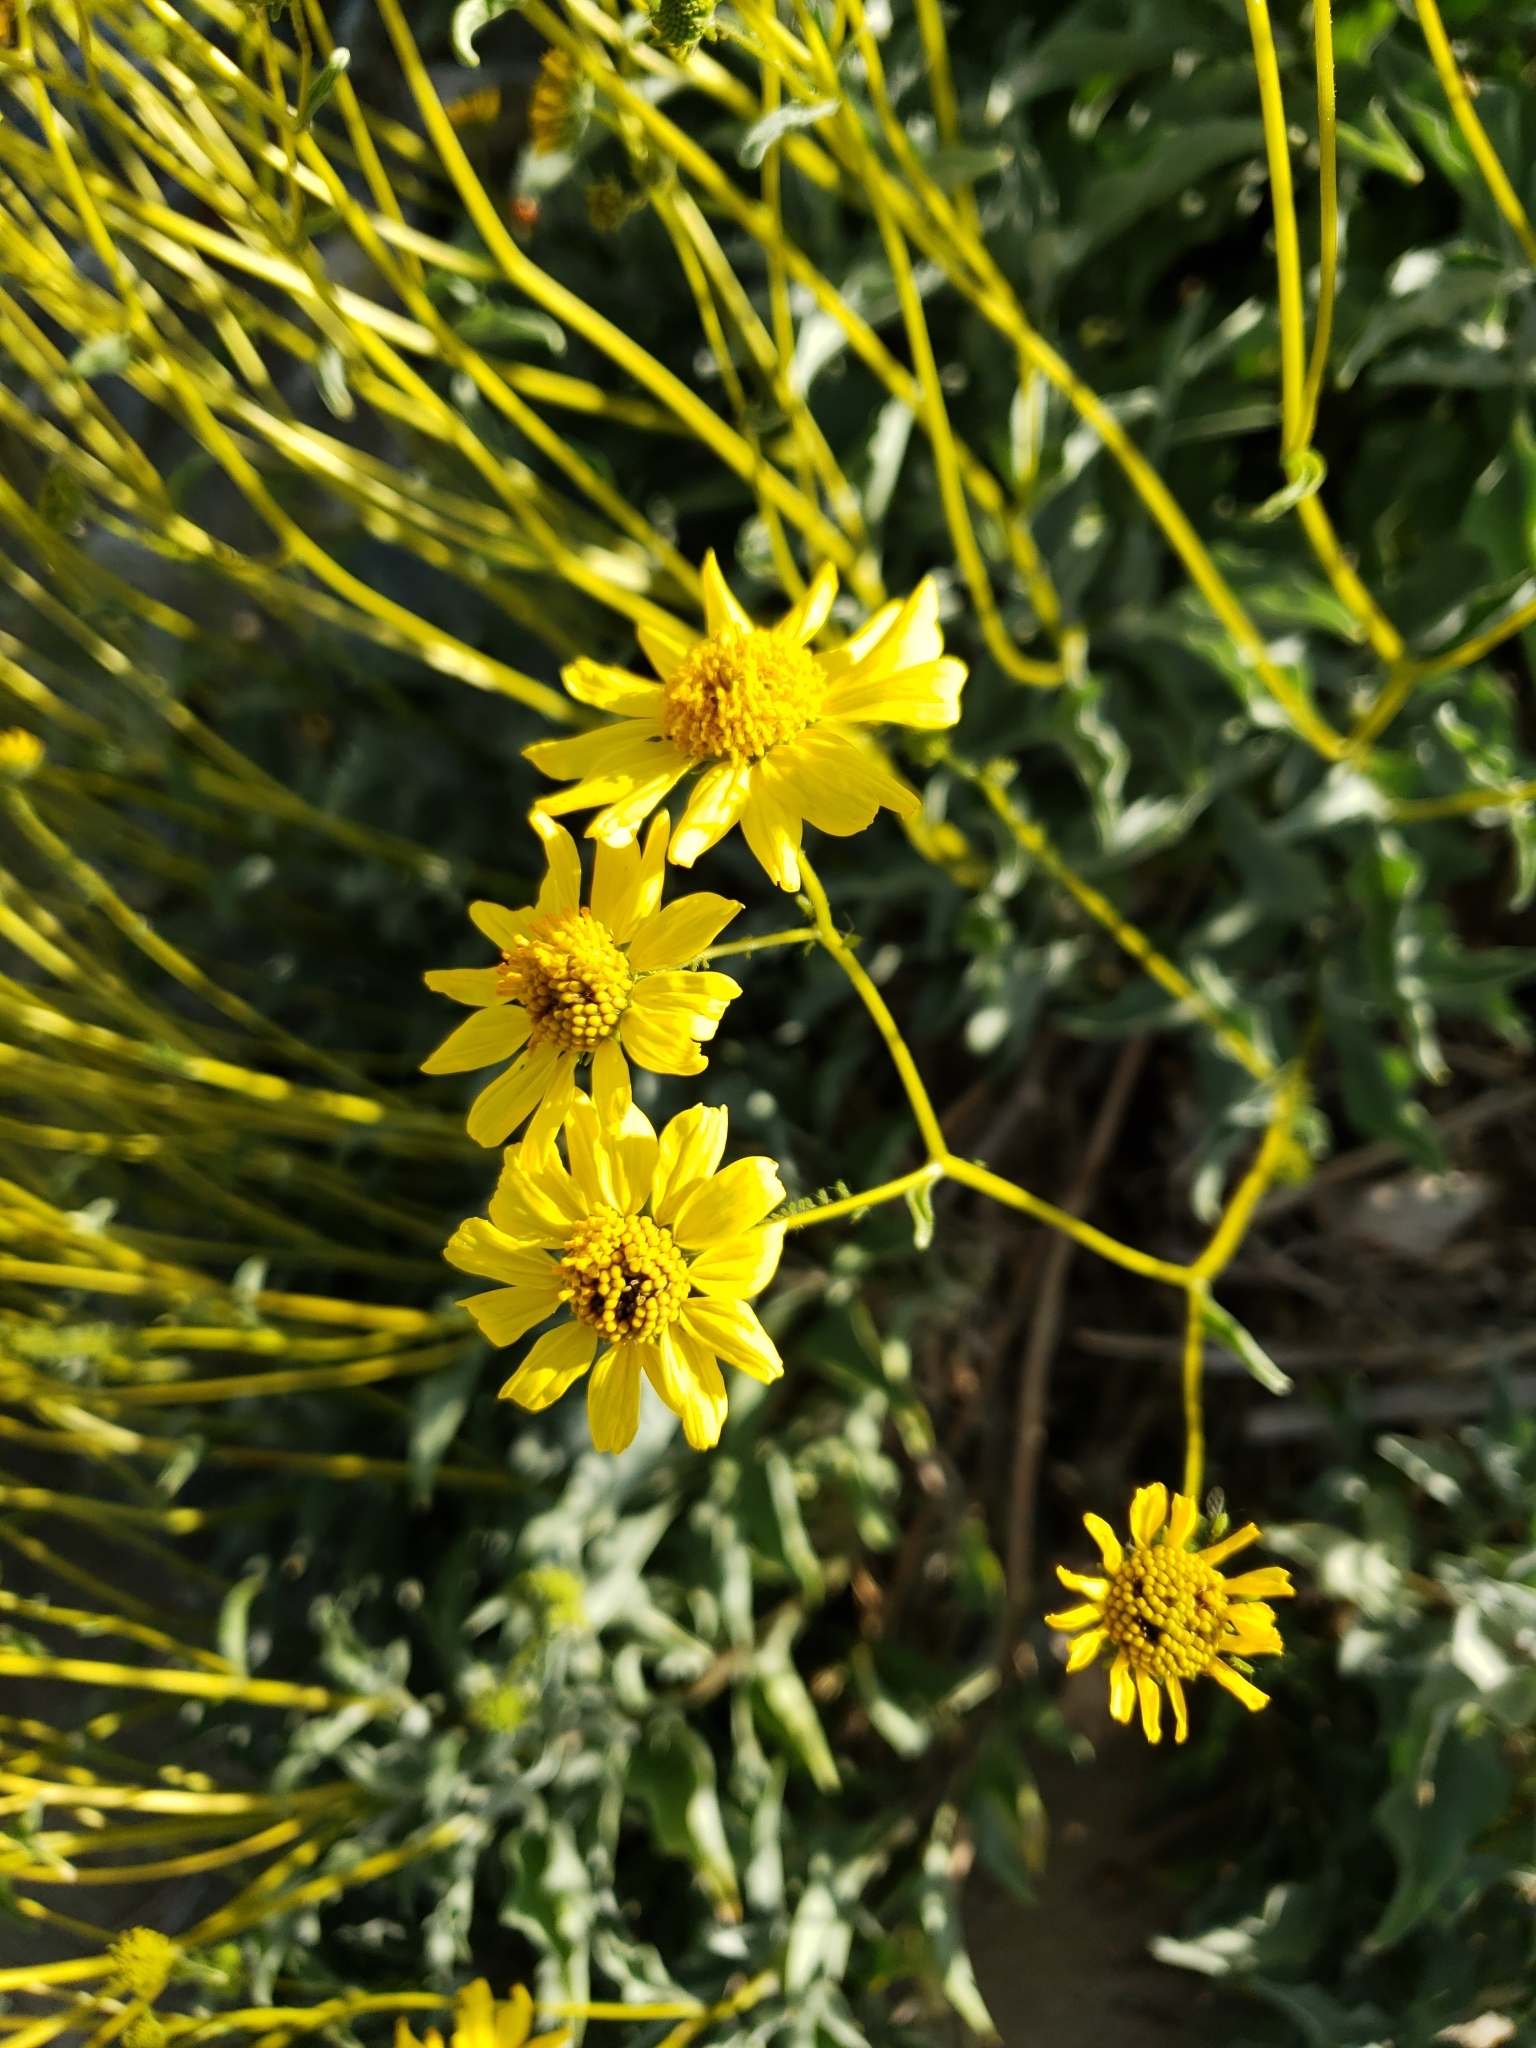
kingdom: Plantae
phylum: Tracheophyta
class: Magnoliopsida
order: Asterales
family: Asteraceae
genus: Encelia
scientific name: Encelia farinosa
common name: Brittlebush
